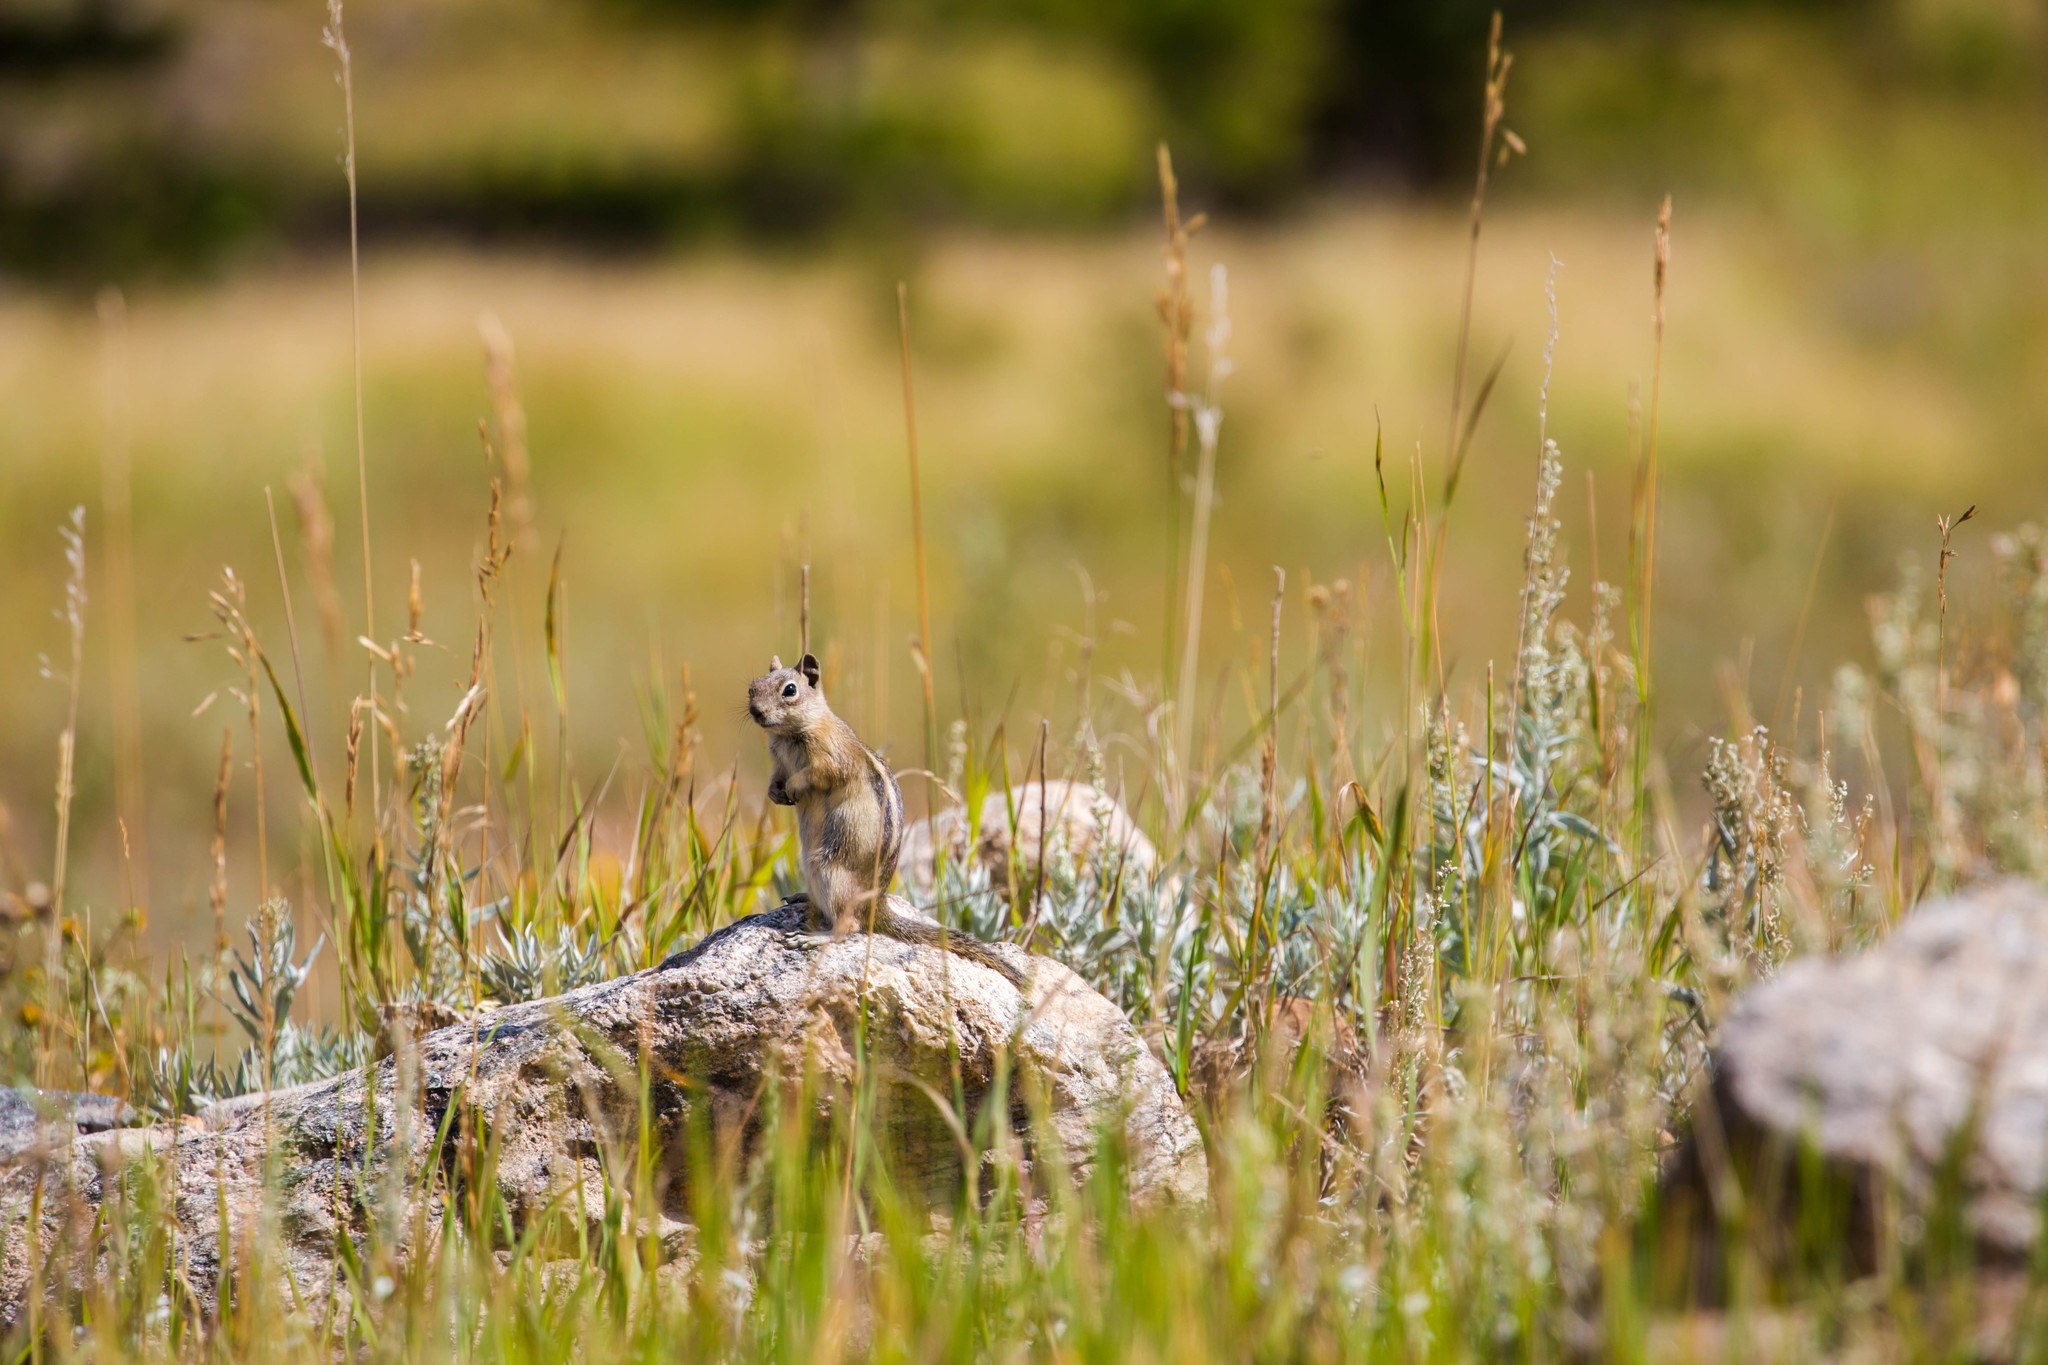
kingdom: Animalia
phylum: Chordata
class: Mammalia
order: Rodentia
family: Sciuridae
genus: Callospermophilus
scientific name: Callospermophilus lateralis
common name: Golden-mantled ground squirrel
